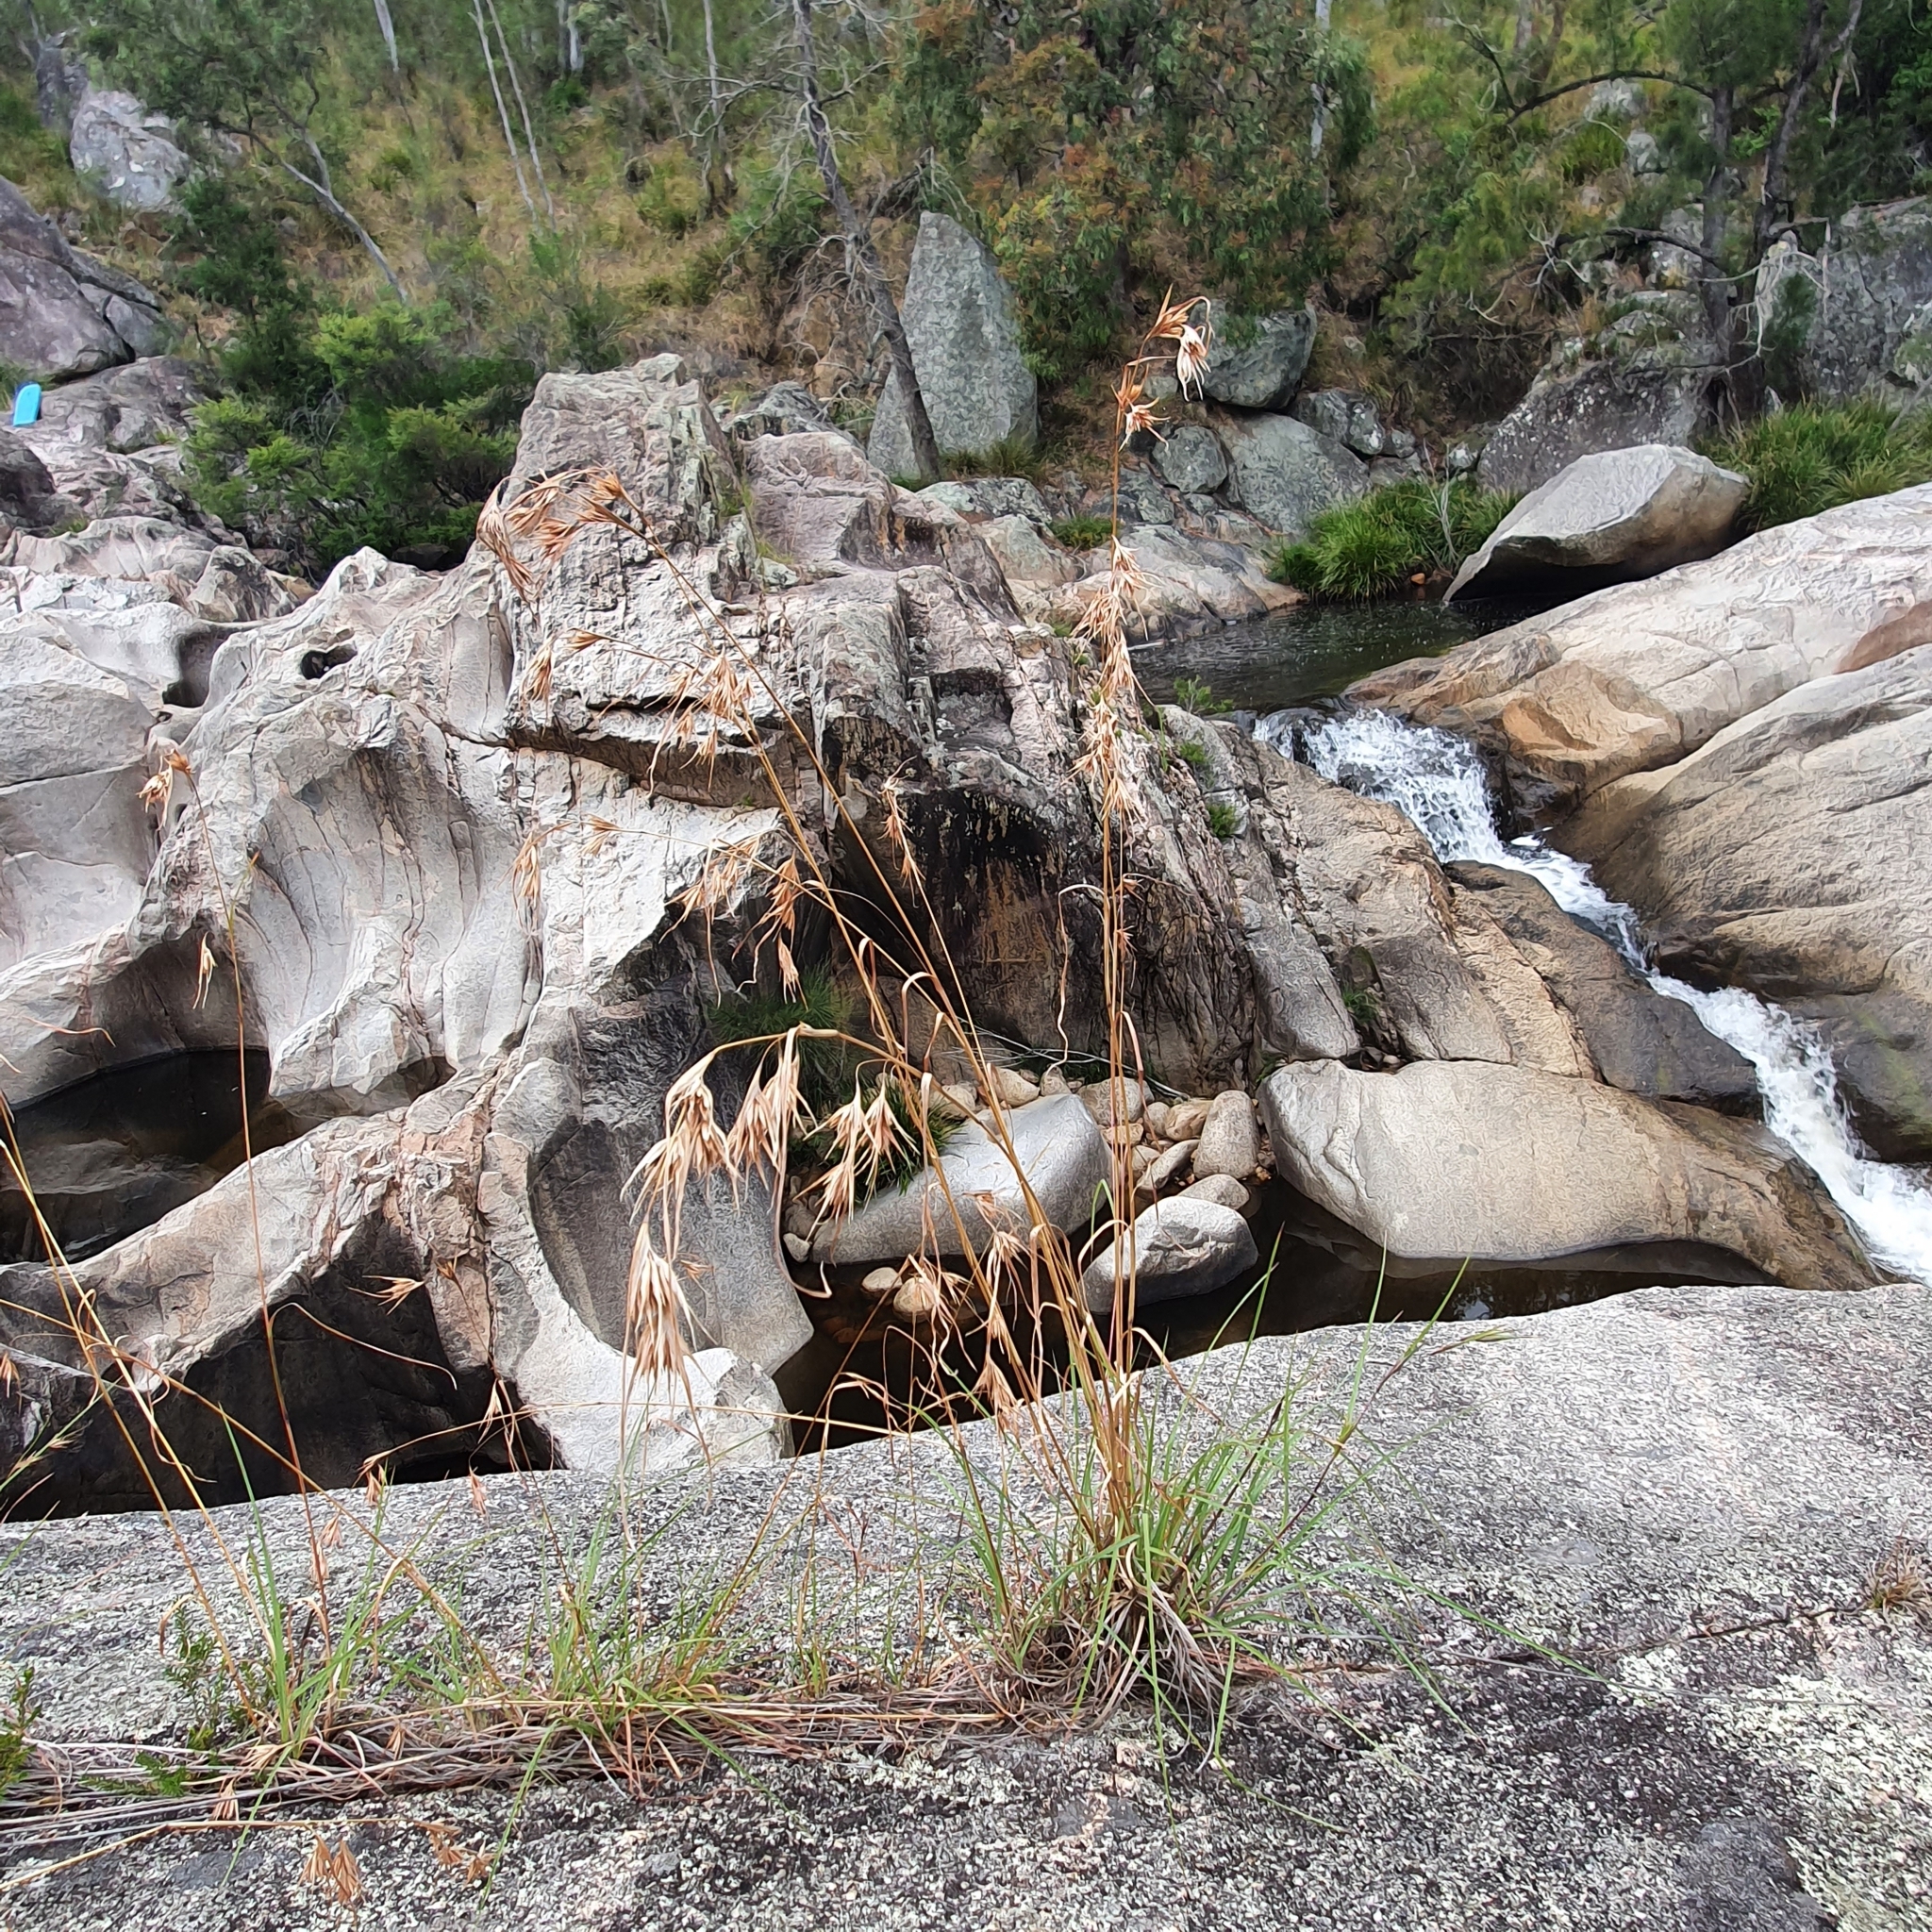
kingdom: Plantae
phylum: Tracheophyta
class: Liliopsida
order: Poales
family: Poaceae
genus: Themeda
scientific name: Themeda triandra
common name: Kangaroo grass
